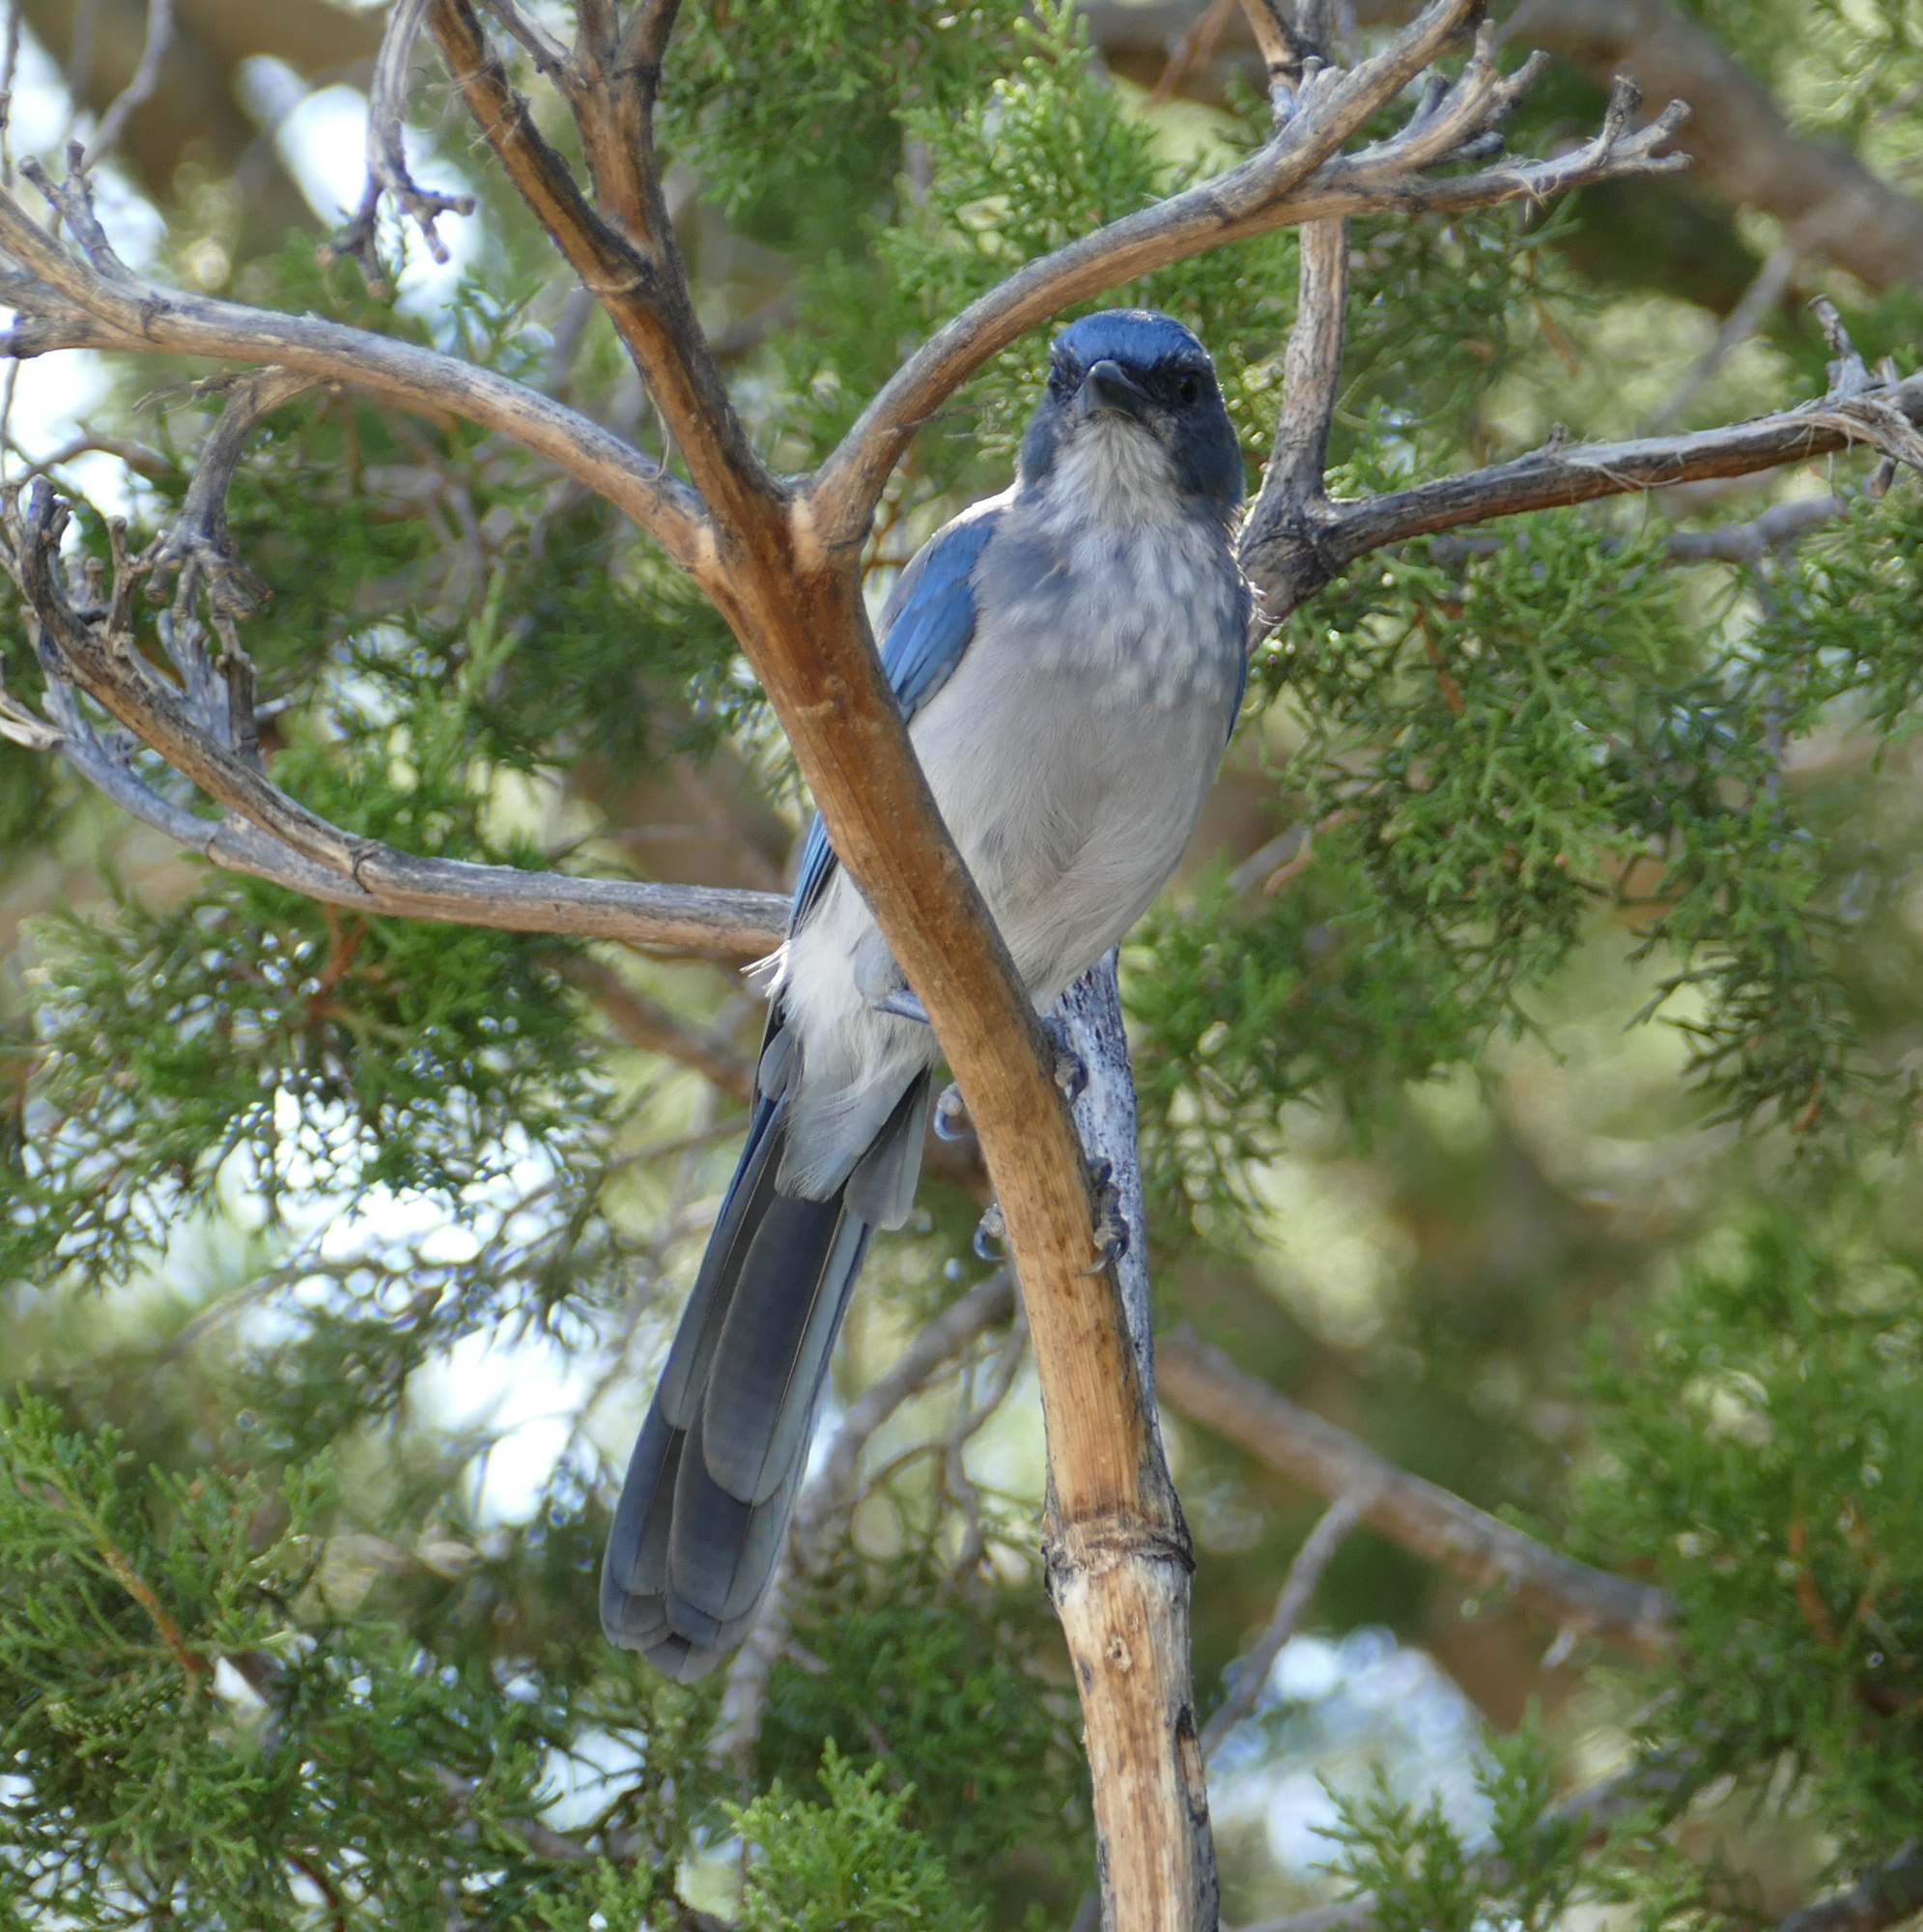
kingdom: Animalia
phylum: Chordata
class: Aves
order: Passeriformes
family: Corvidae
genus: Aphelocoma
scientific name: Aphelocoma woodhouseii
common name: Woodhouse's scrub-jay
